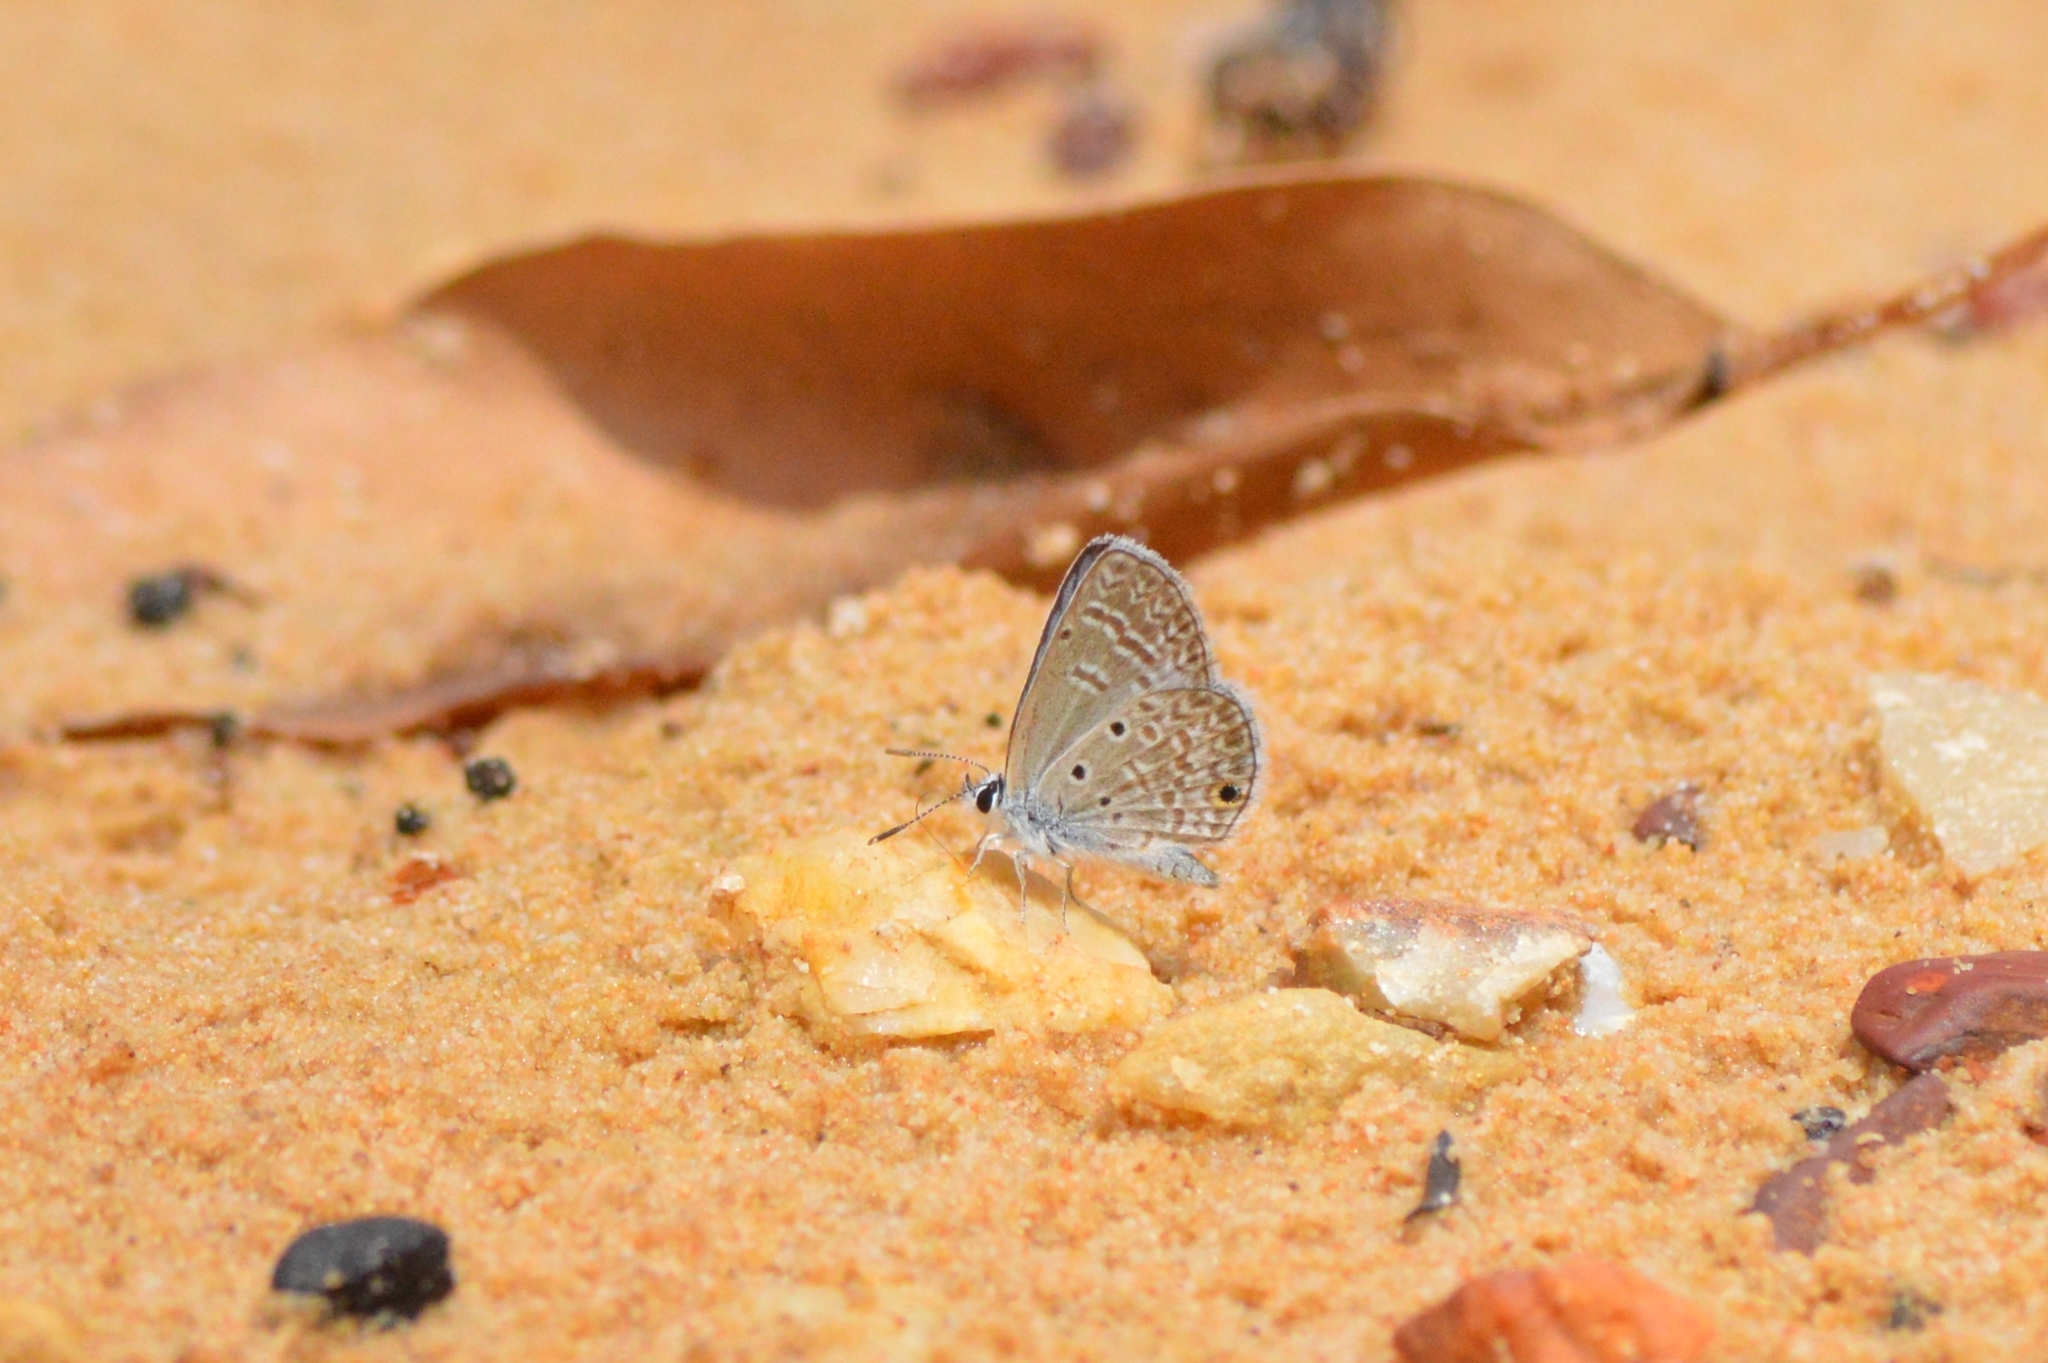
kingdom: Animalia
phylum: Arthropoda
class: Insecta
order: Lepidoptera
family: Lycaenidae
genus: Hemiargus
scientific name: Hemiargus hanno
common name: Common blue
